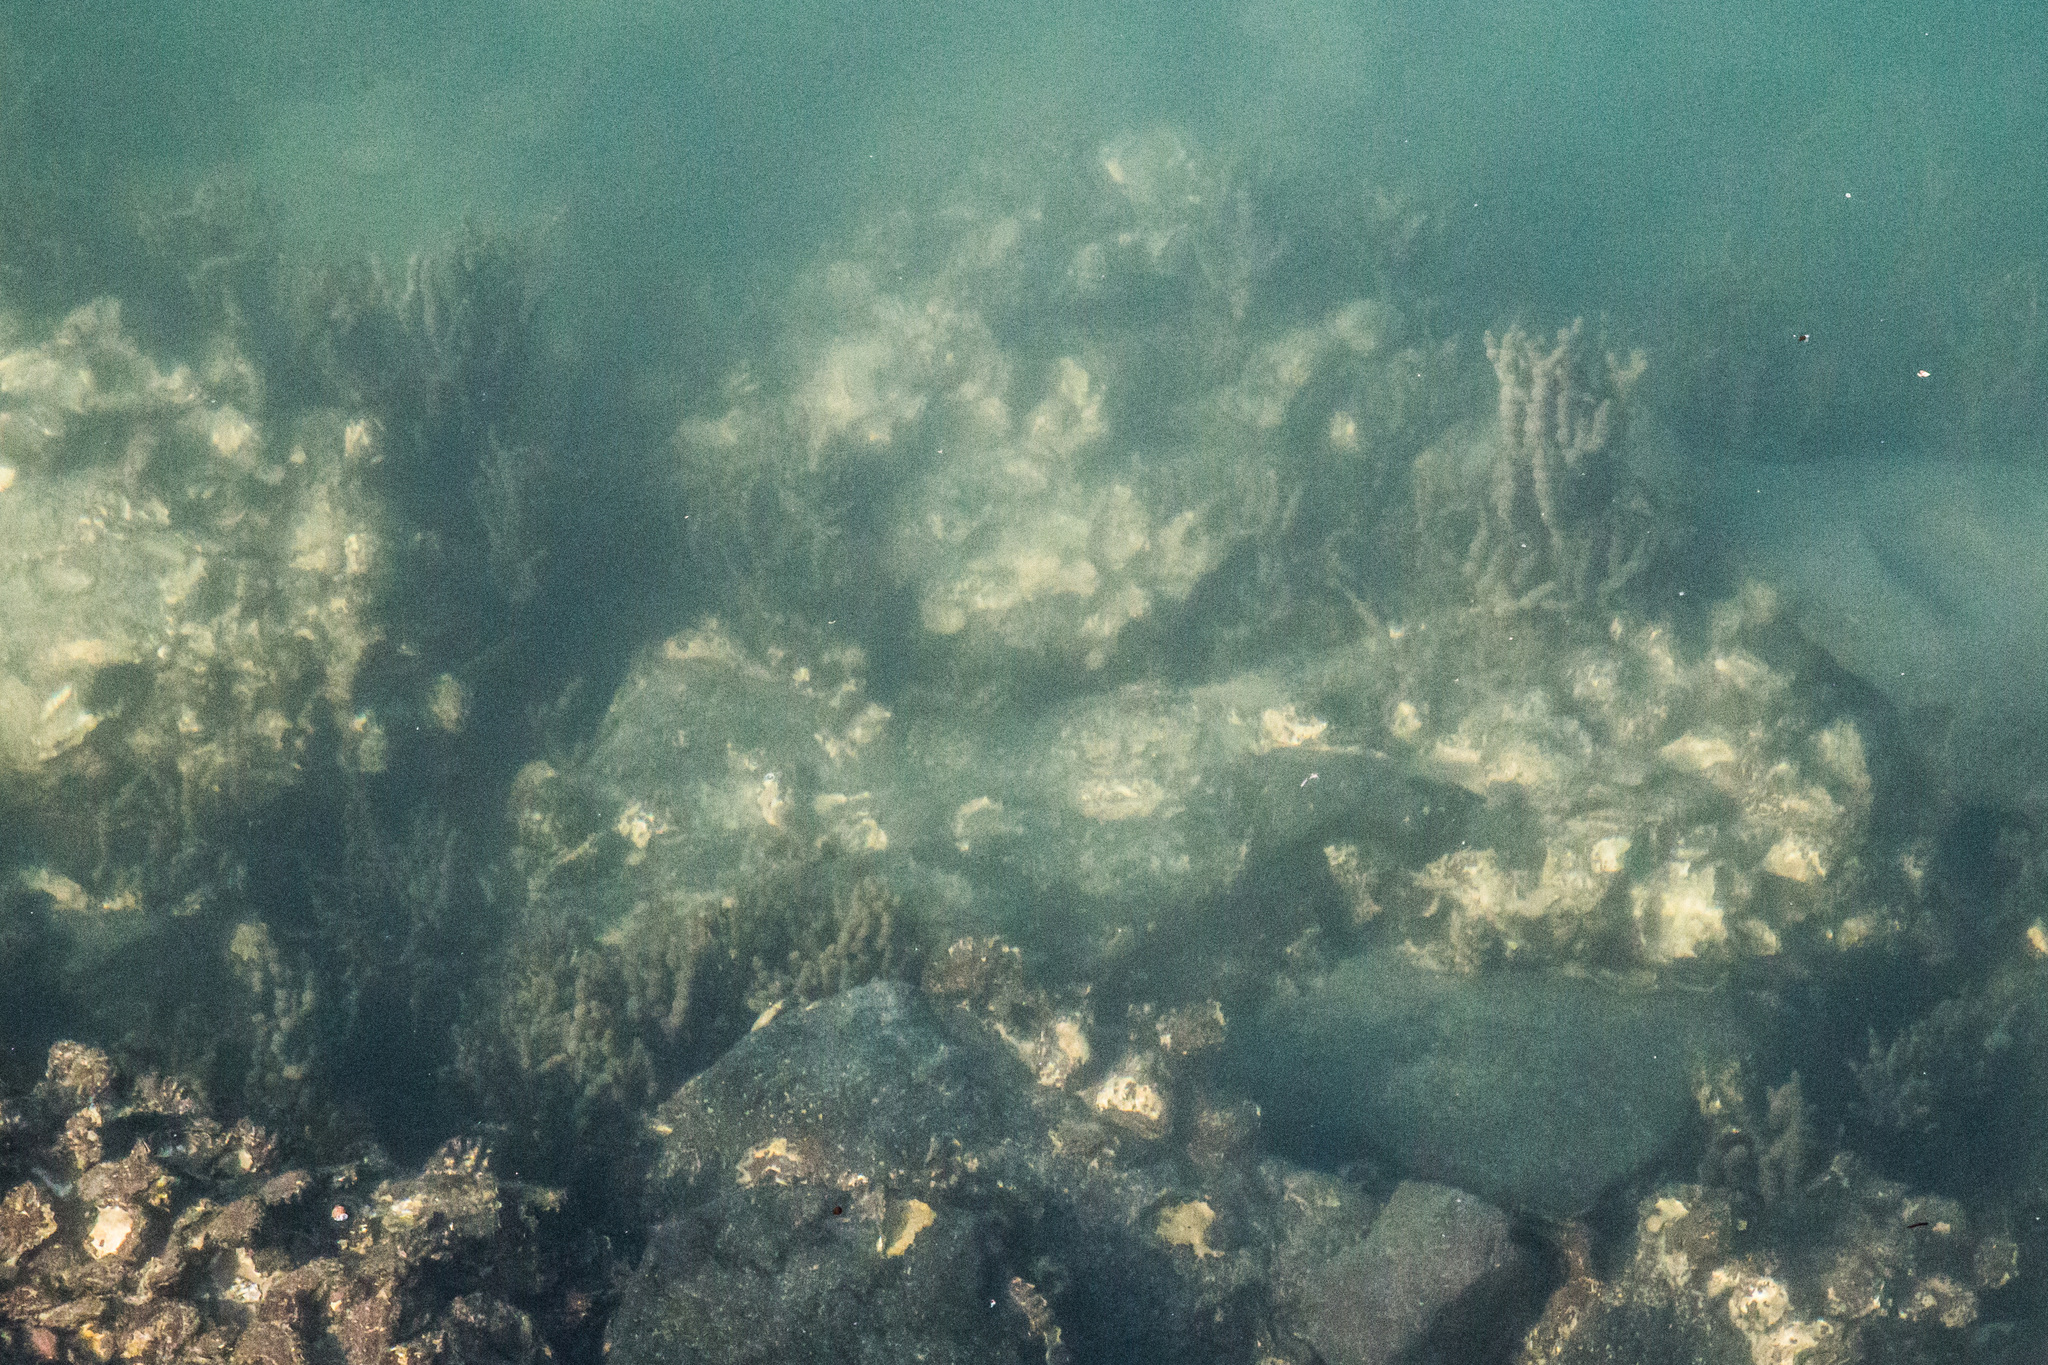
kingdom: Chromista
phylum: Ochrophyta
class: Phaeophyceae
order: Fucales
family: Hormosiraceae
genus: Hormosira
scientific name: Hormosira banksii
